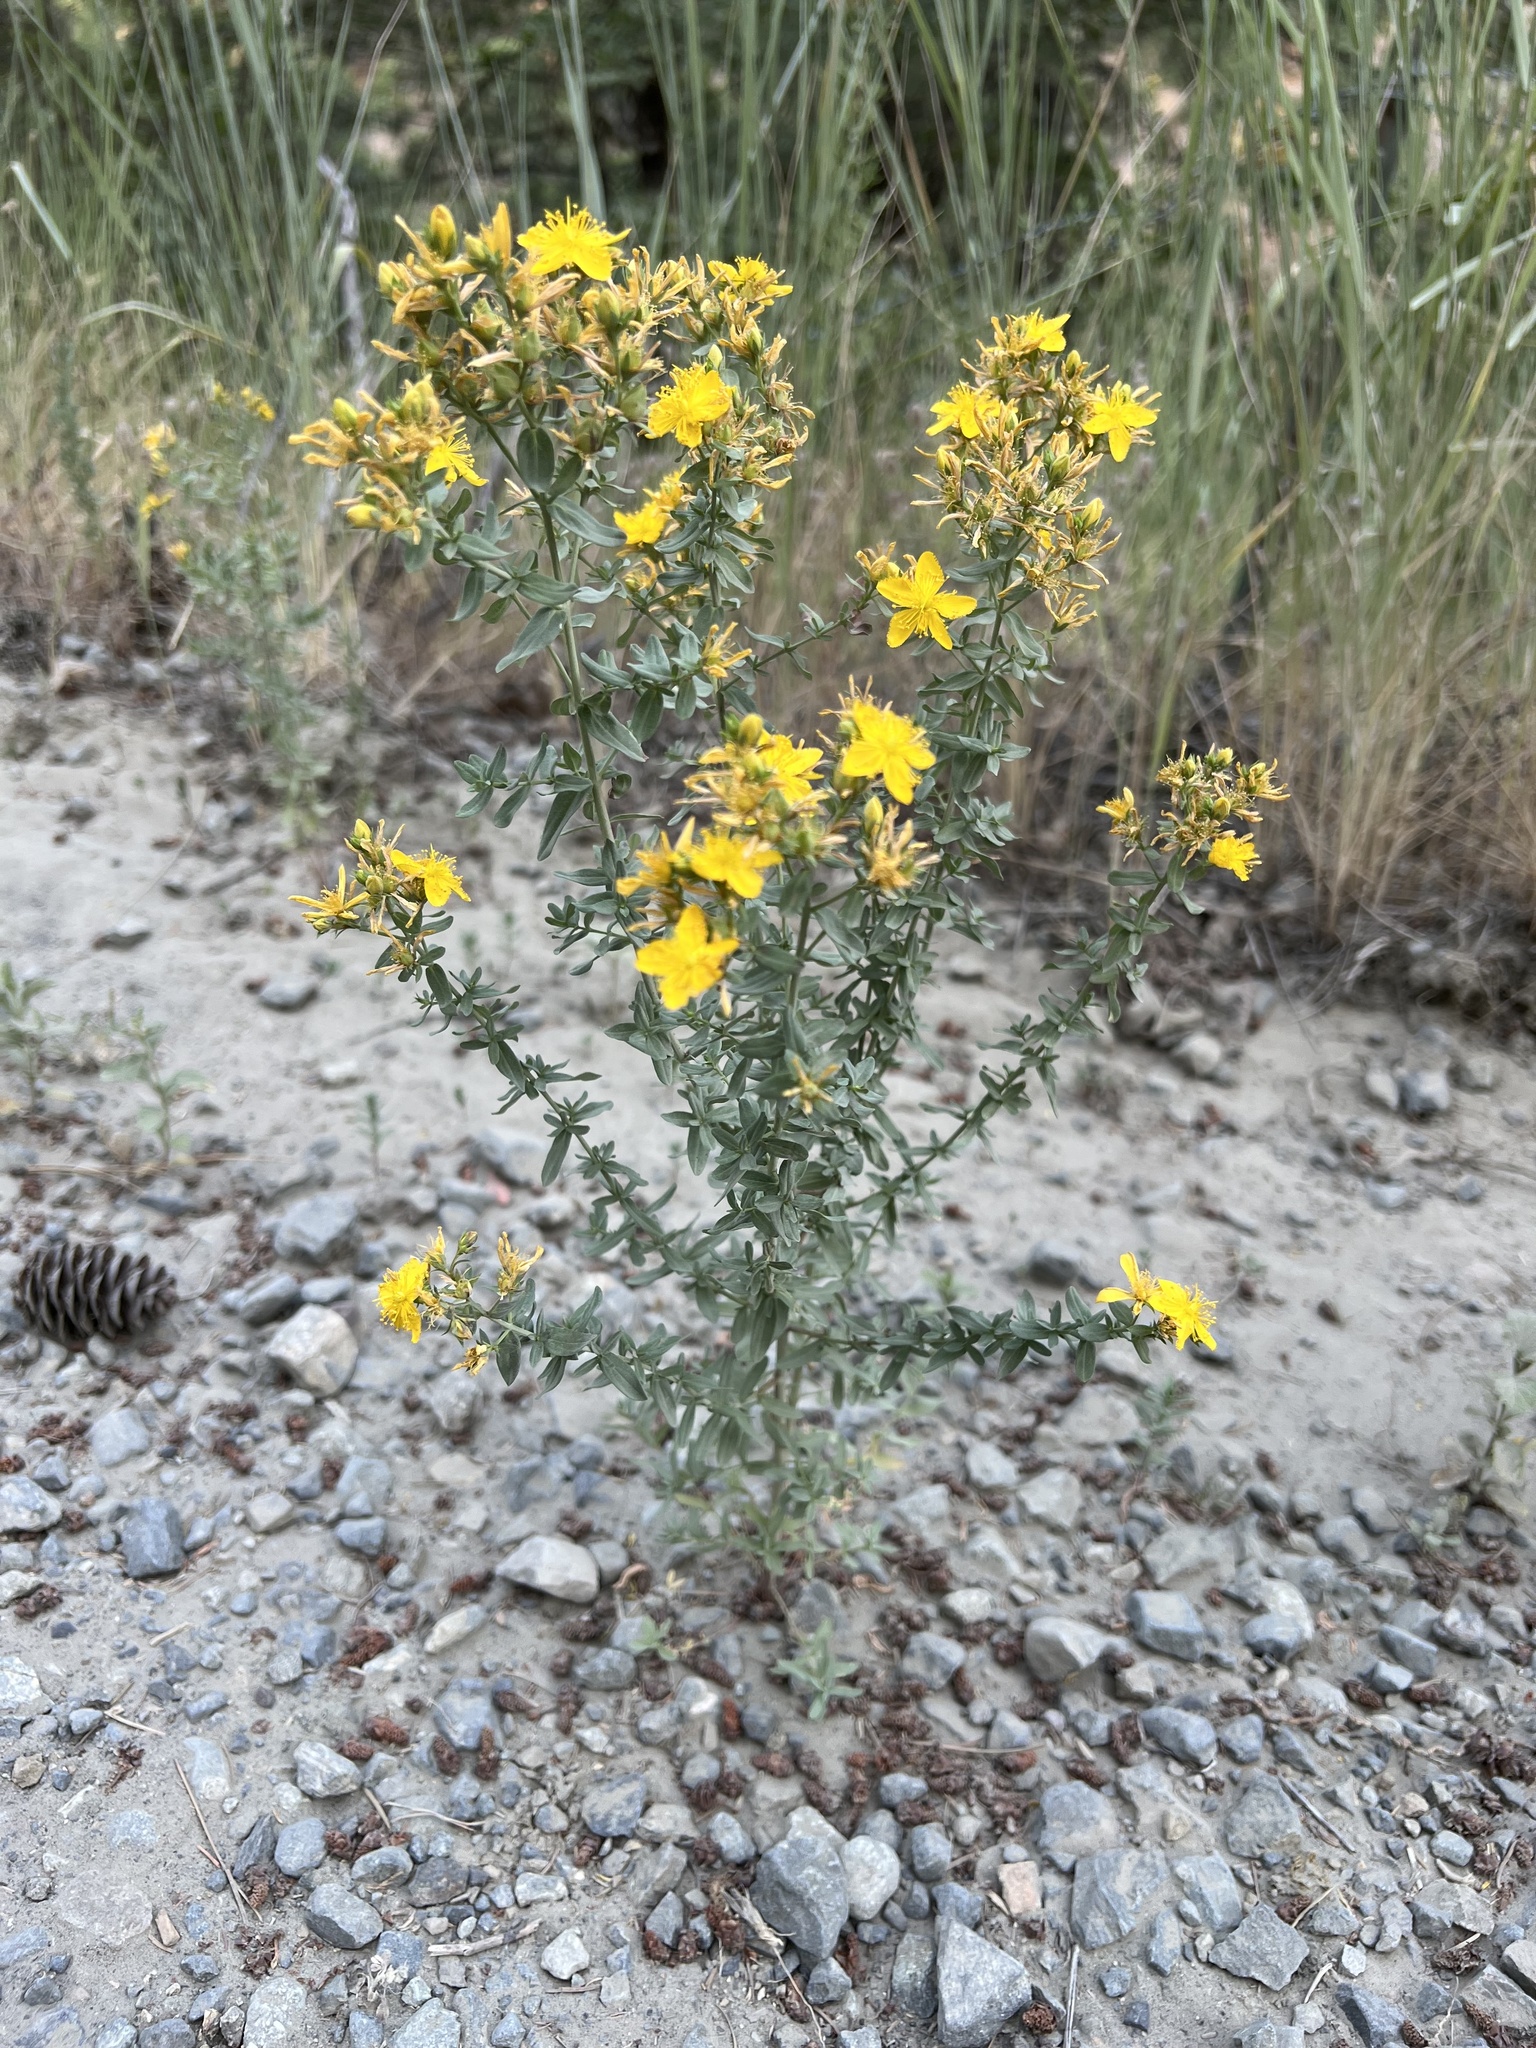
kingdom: Plantae
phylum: Tracheophyta
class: Magnoliopsida
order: Malpighiales
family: Hypericaceae
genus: Hypericum
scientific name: Hypericum perforatum
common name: Common st. johnswort
